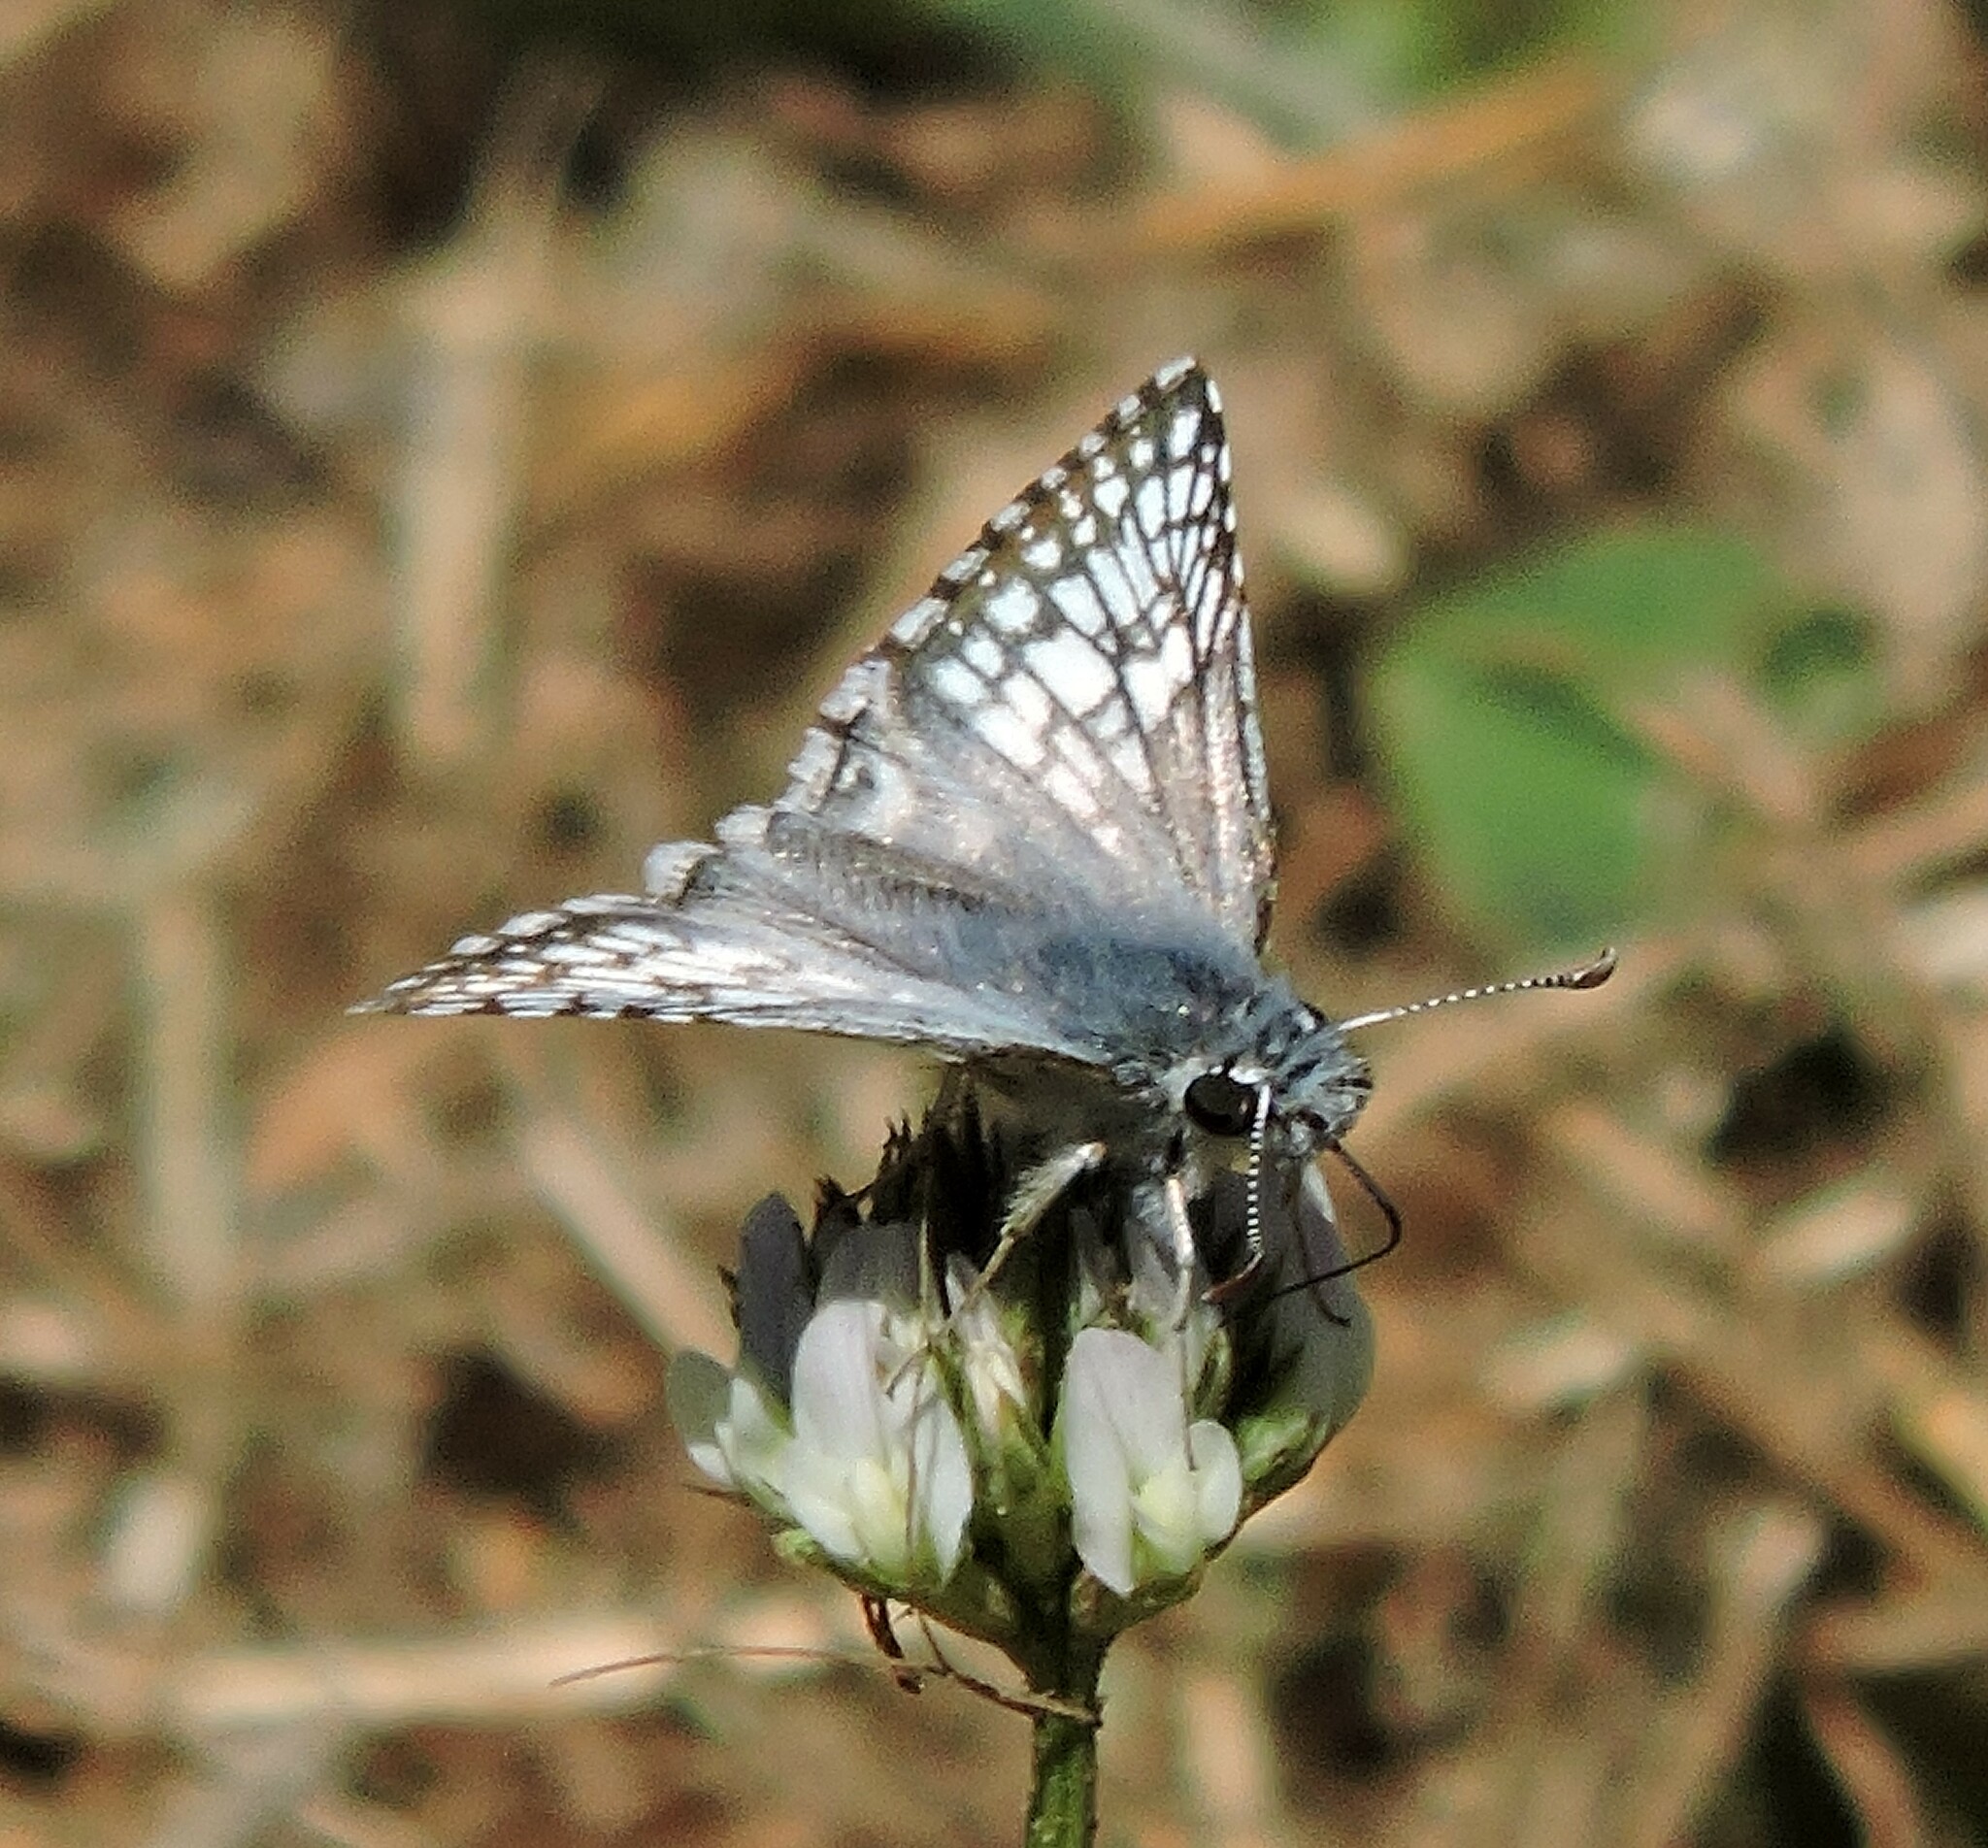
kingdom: Animalia
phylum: Arthropoda
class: Insecta
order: Lepidoptera
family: Hesperiidae
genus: Burnsius
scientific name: Burnsius communis
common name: Common checkered-skipper
